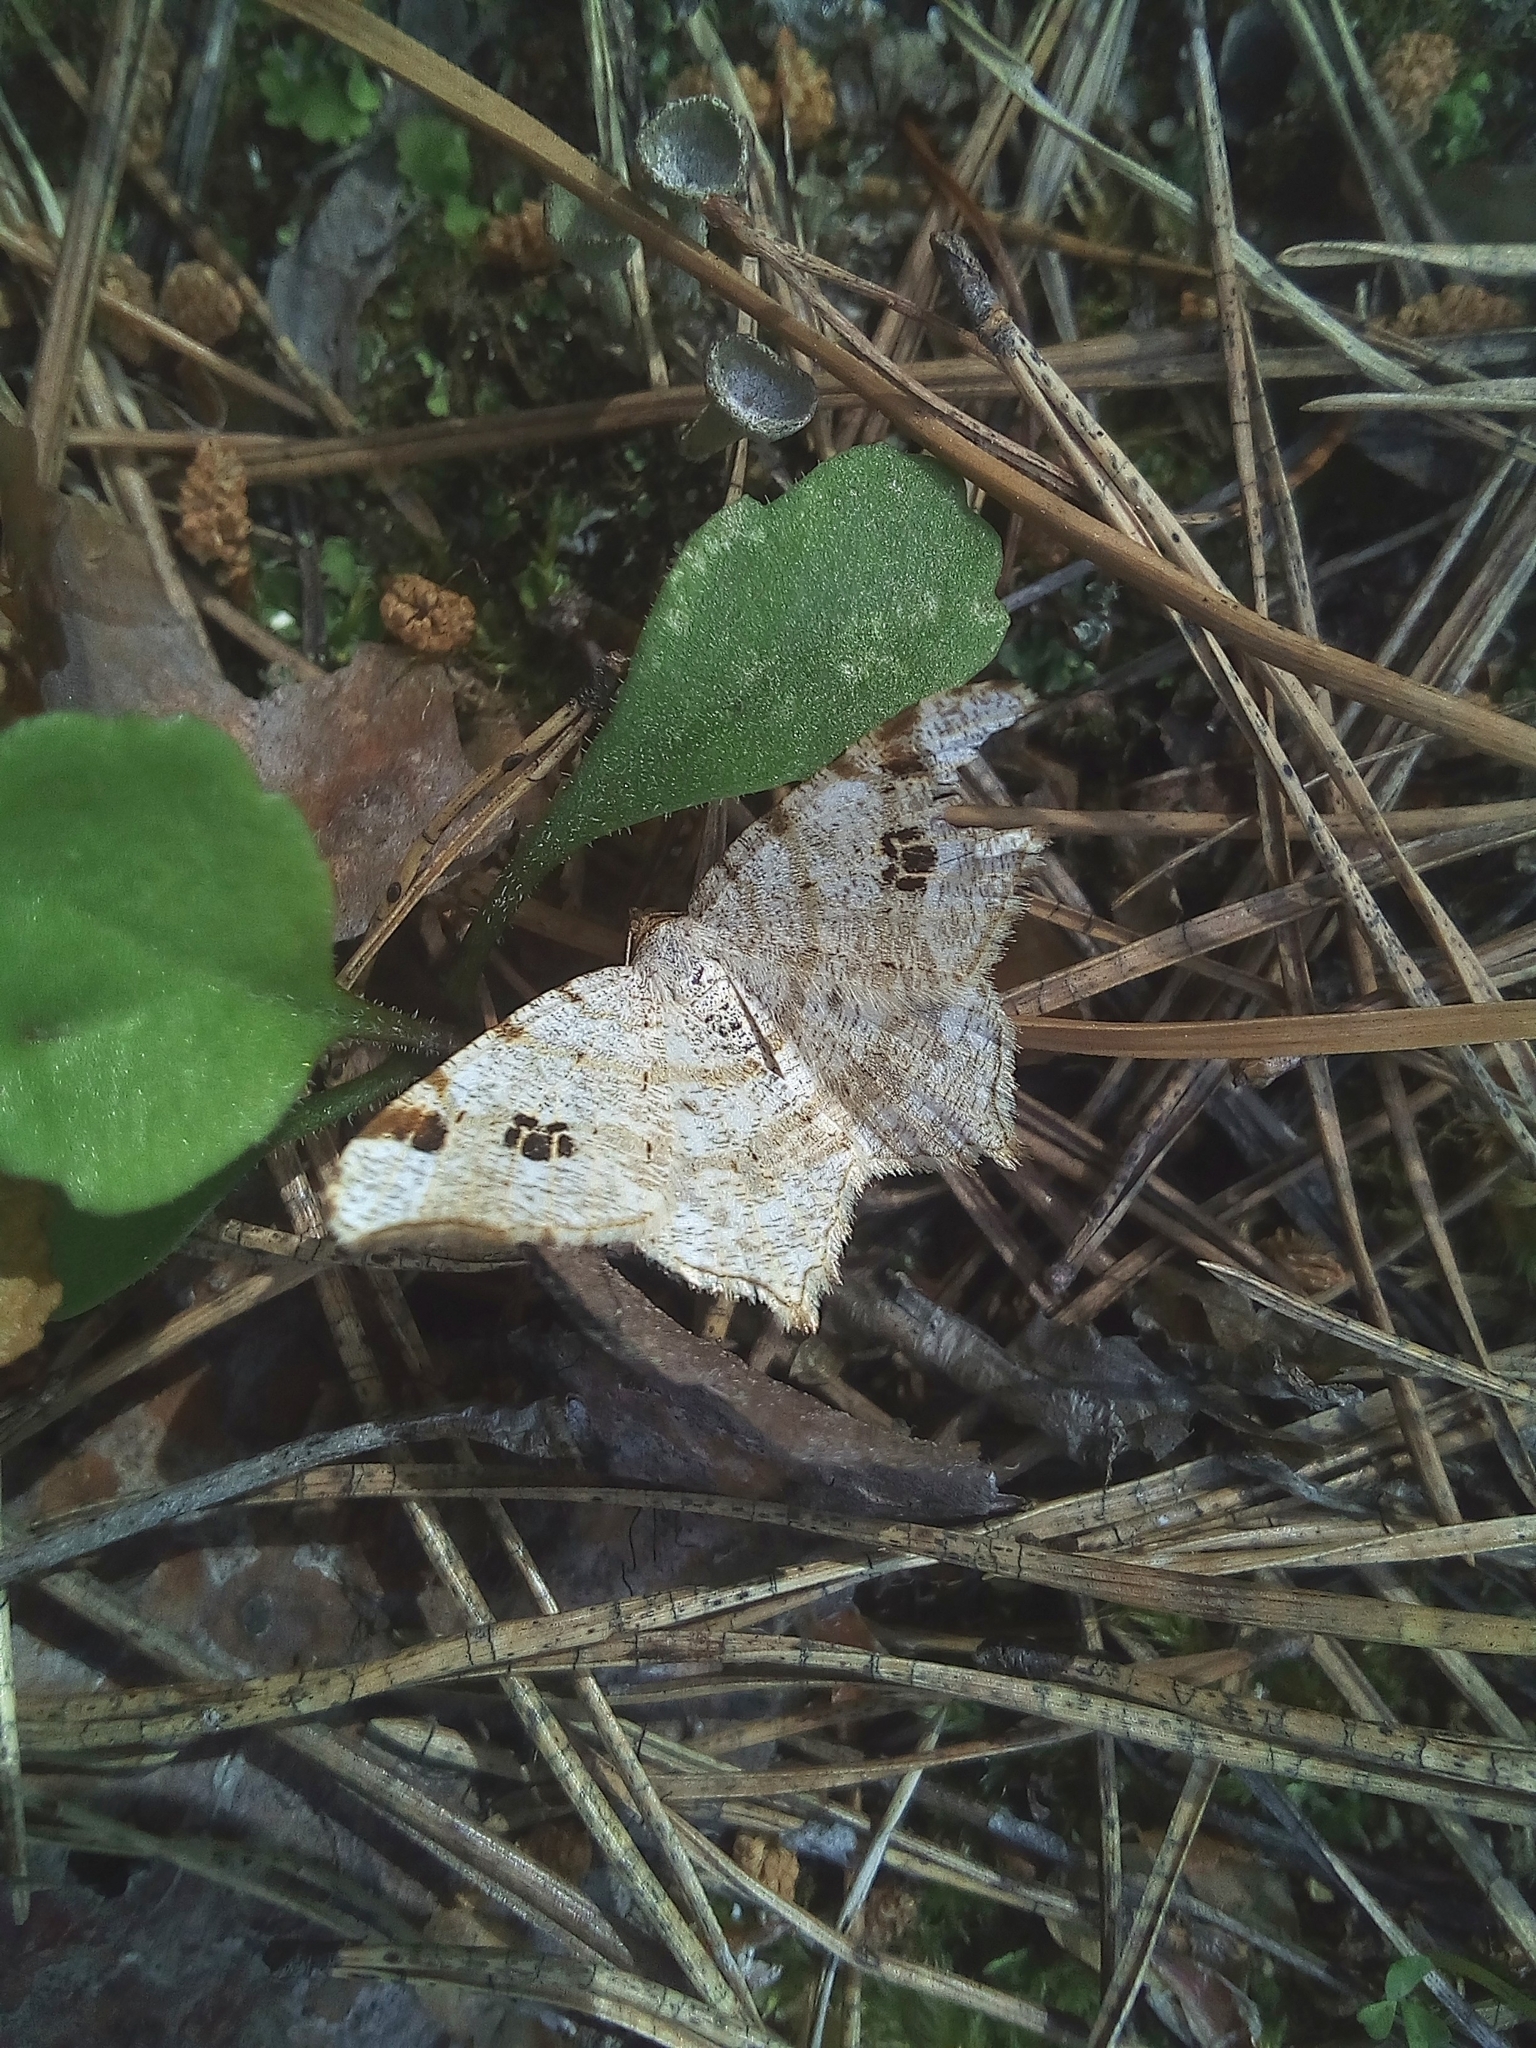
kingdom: Animalia
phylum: Arthropoda
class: Insecta
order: Lepidoptera
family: Geometridae
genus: Macaria
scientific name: Macaria notata
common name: Peacock moth
